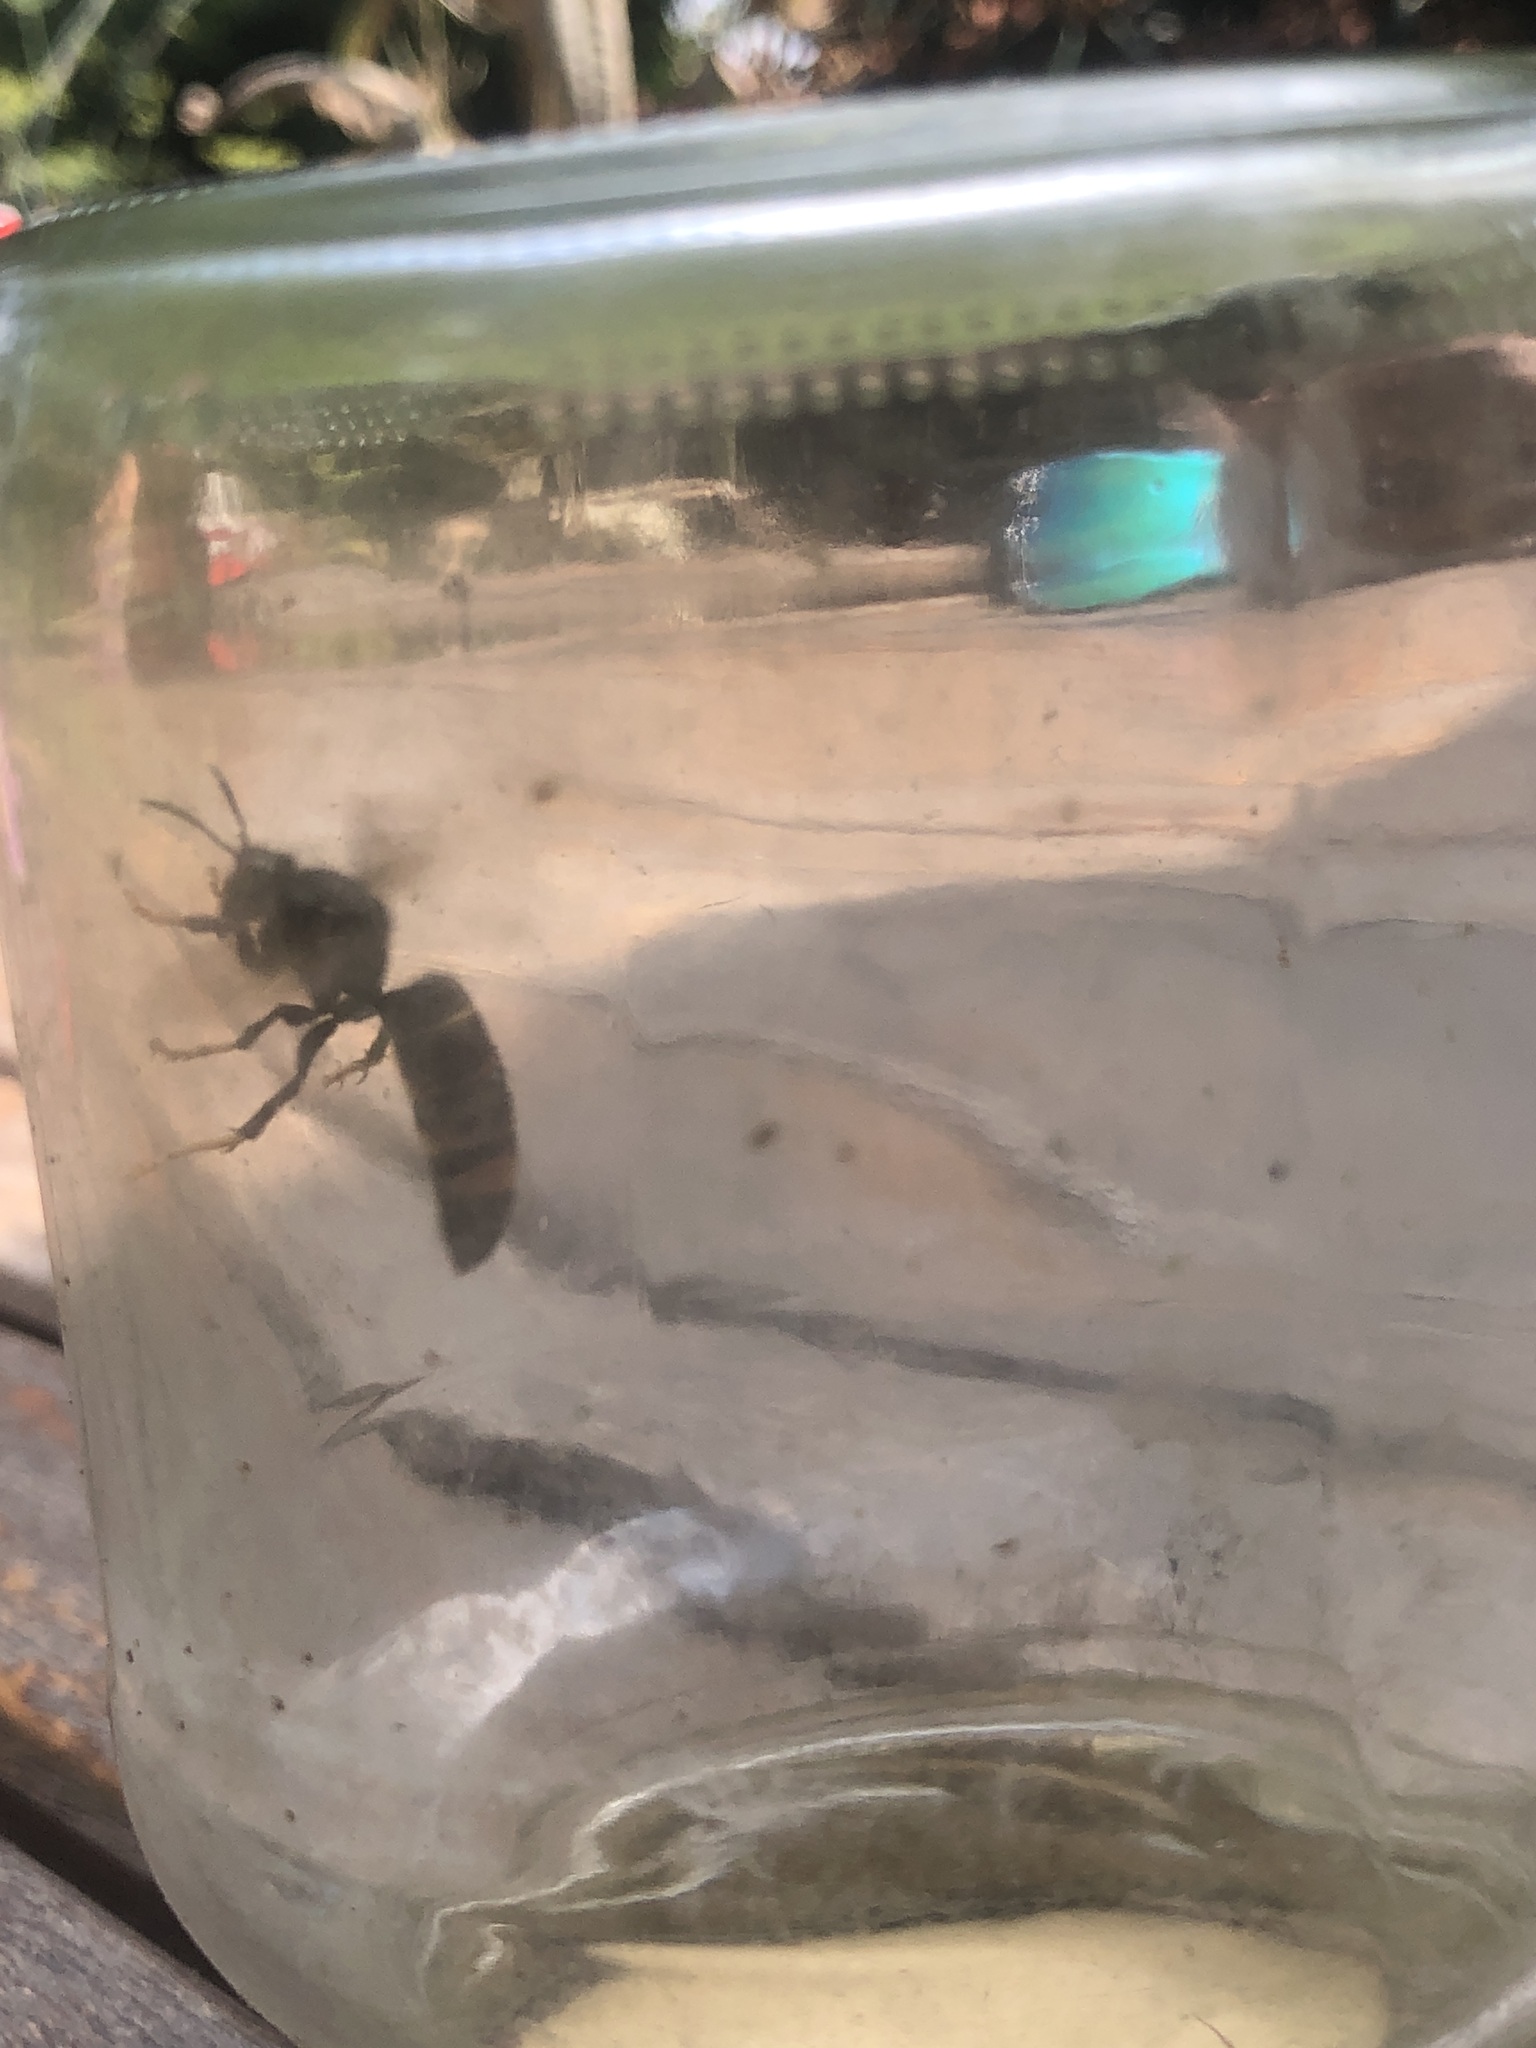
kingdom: Animalia
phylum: Arthropoda
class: Insecta
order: Hymenoptera
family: Vespidae
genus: Vespa
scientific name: Vespa velutina
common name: Asian hornet
